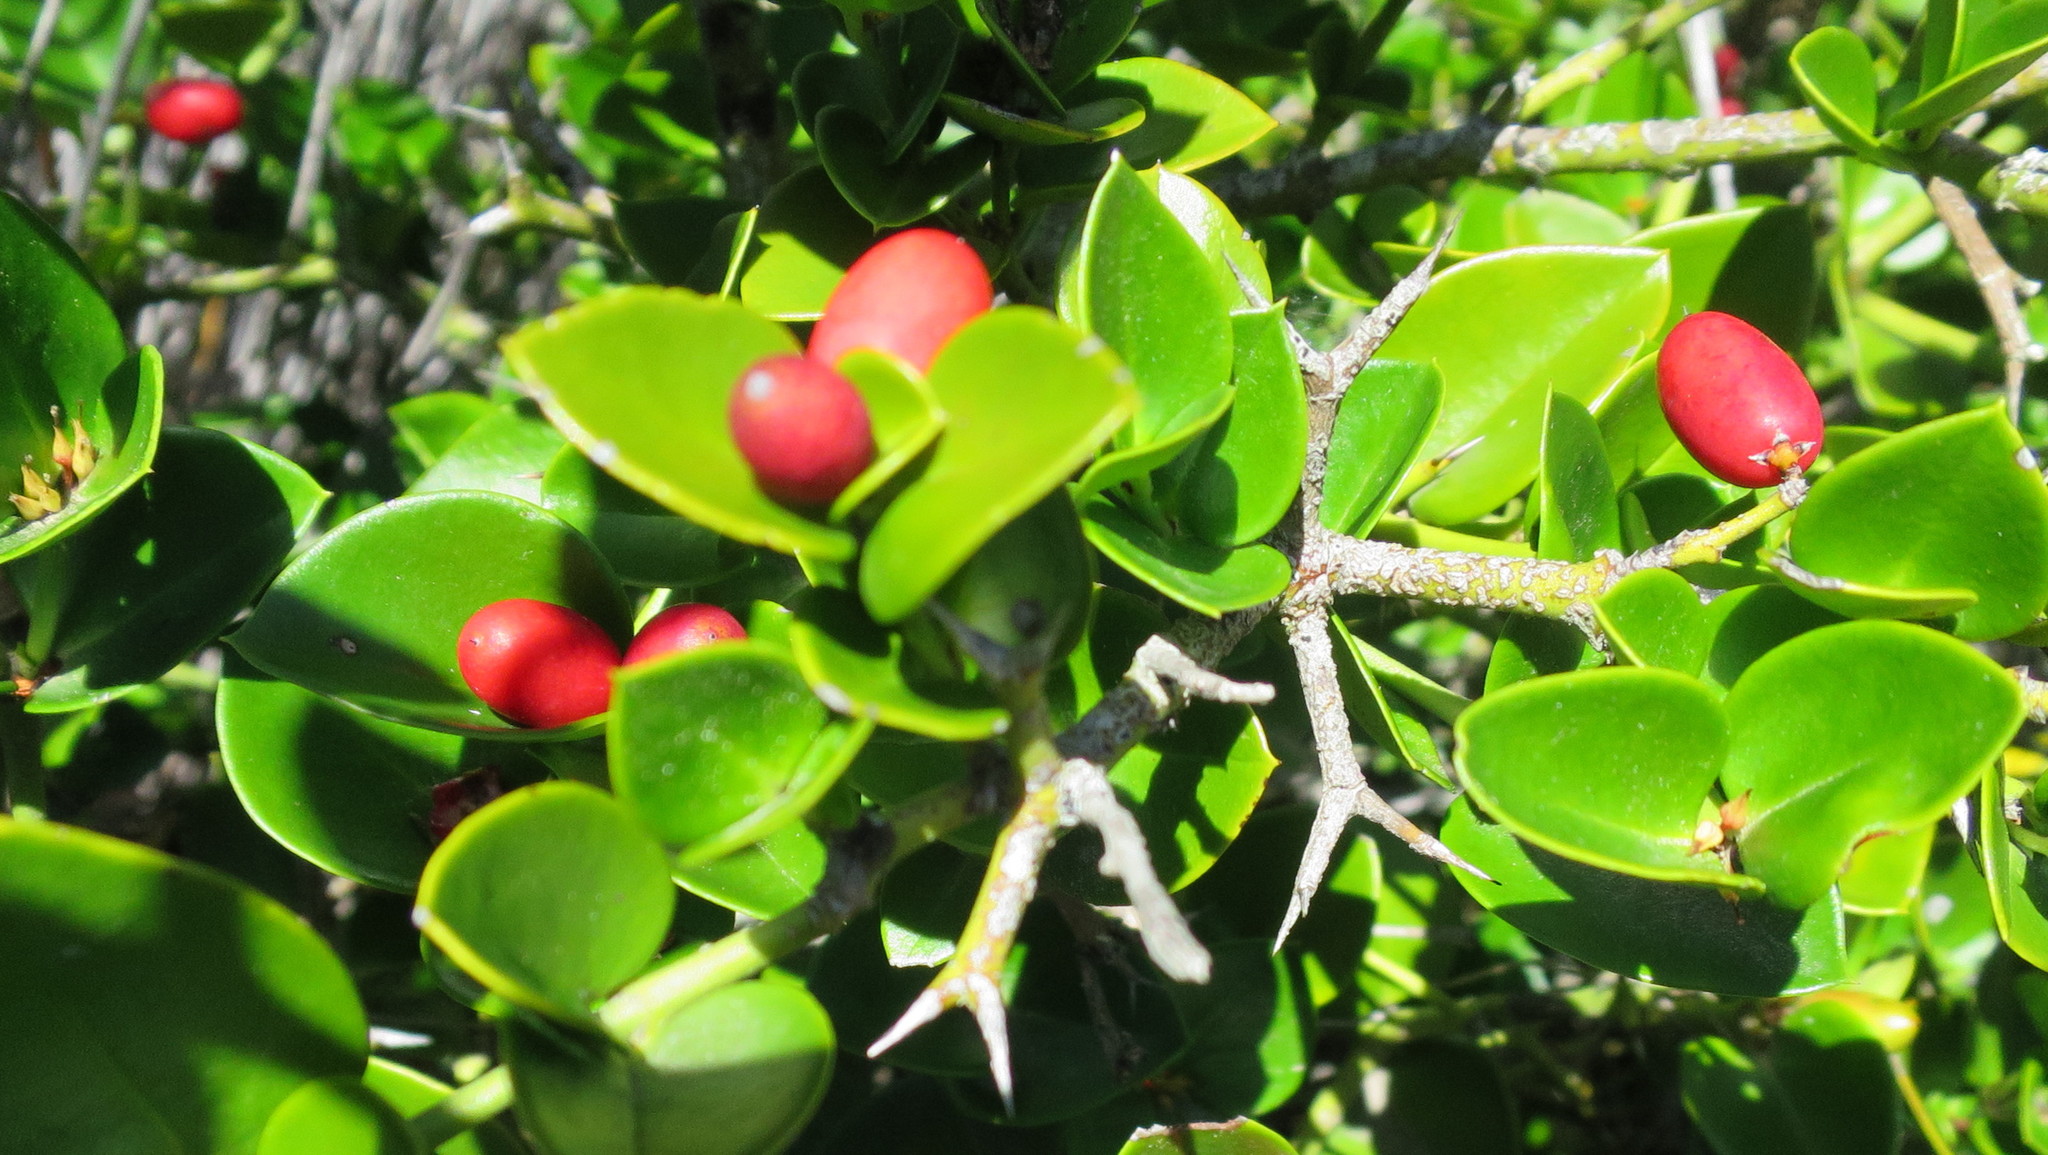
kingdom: Plantae
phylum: Tracheophyta
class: Magnoliopsida
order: Gentianales
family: Apocynaceae
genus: Carissa
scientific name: Carissa bispinosa
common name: Forest num-num
